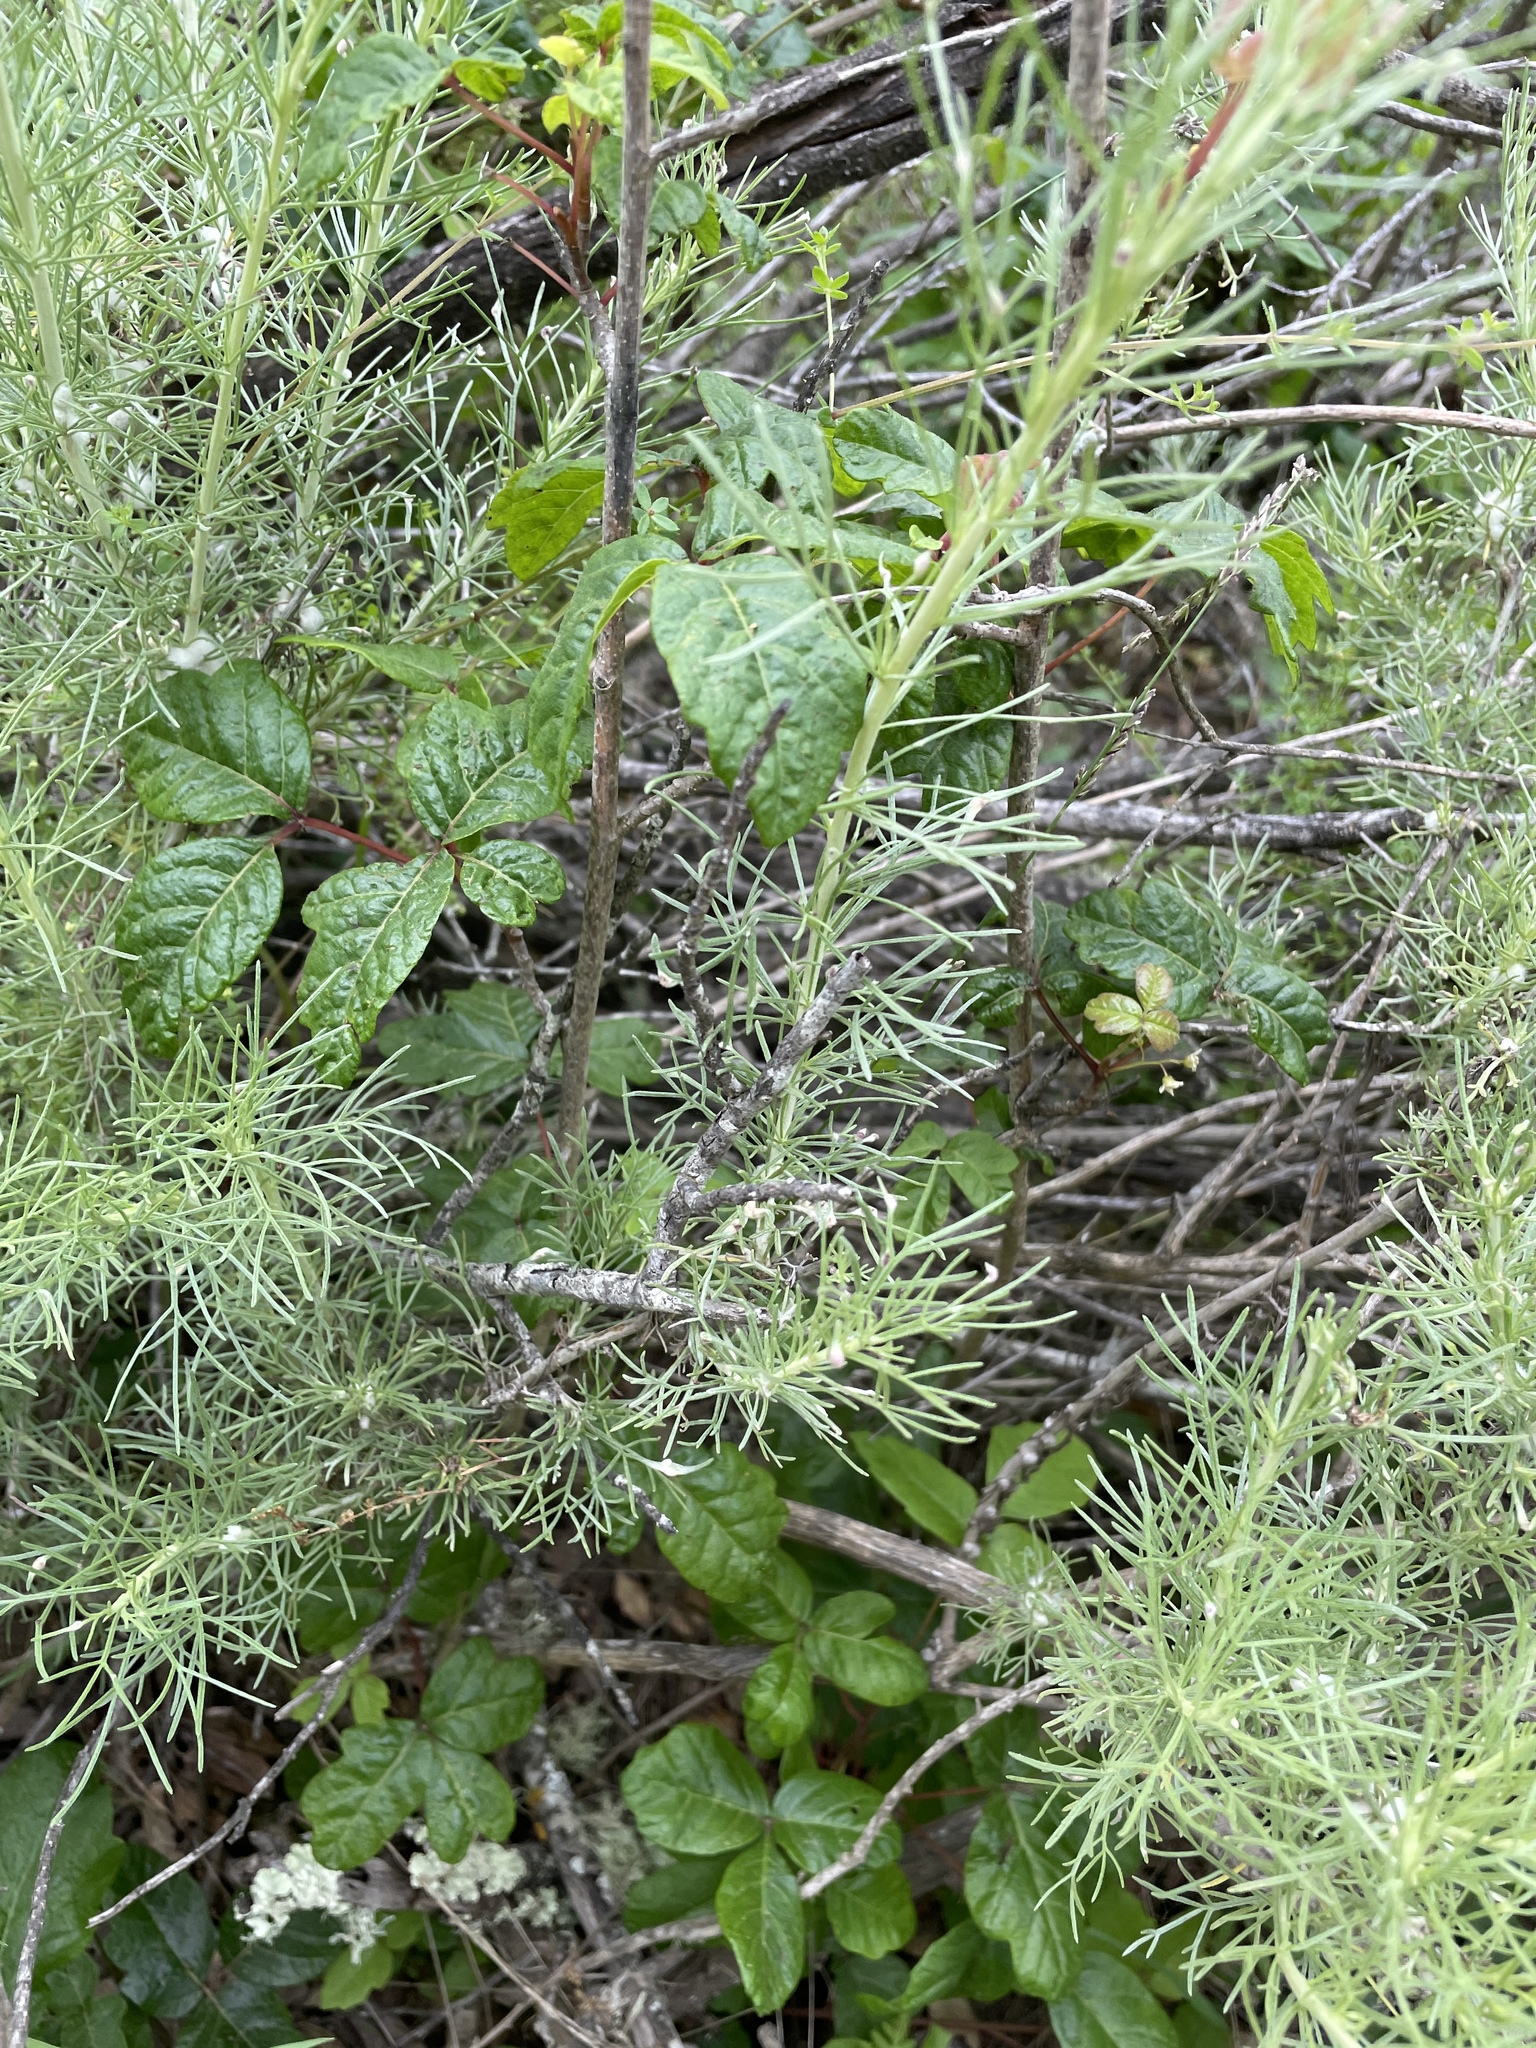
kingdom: Plantae
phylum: Tracheophyta
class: Magnoliopsida
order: Asterales
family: Asteraceae
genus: Artemisia
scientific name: Artemisia californica
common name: California sagebrush
